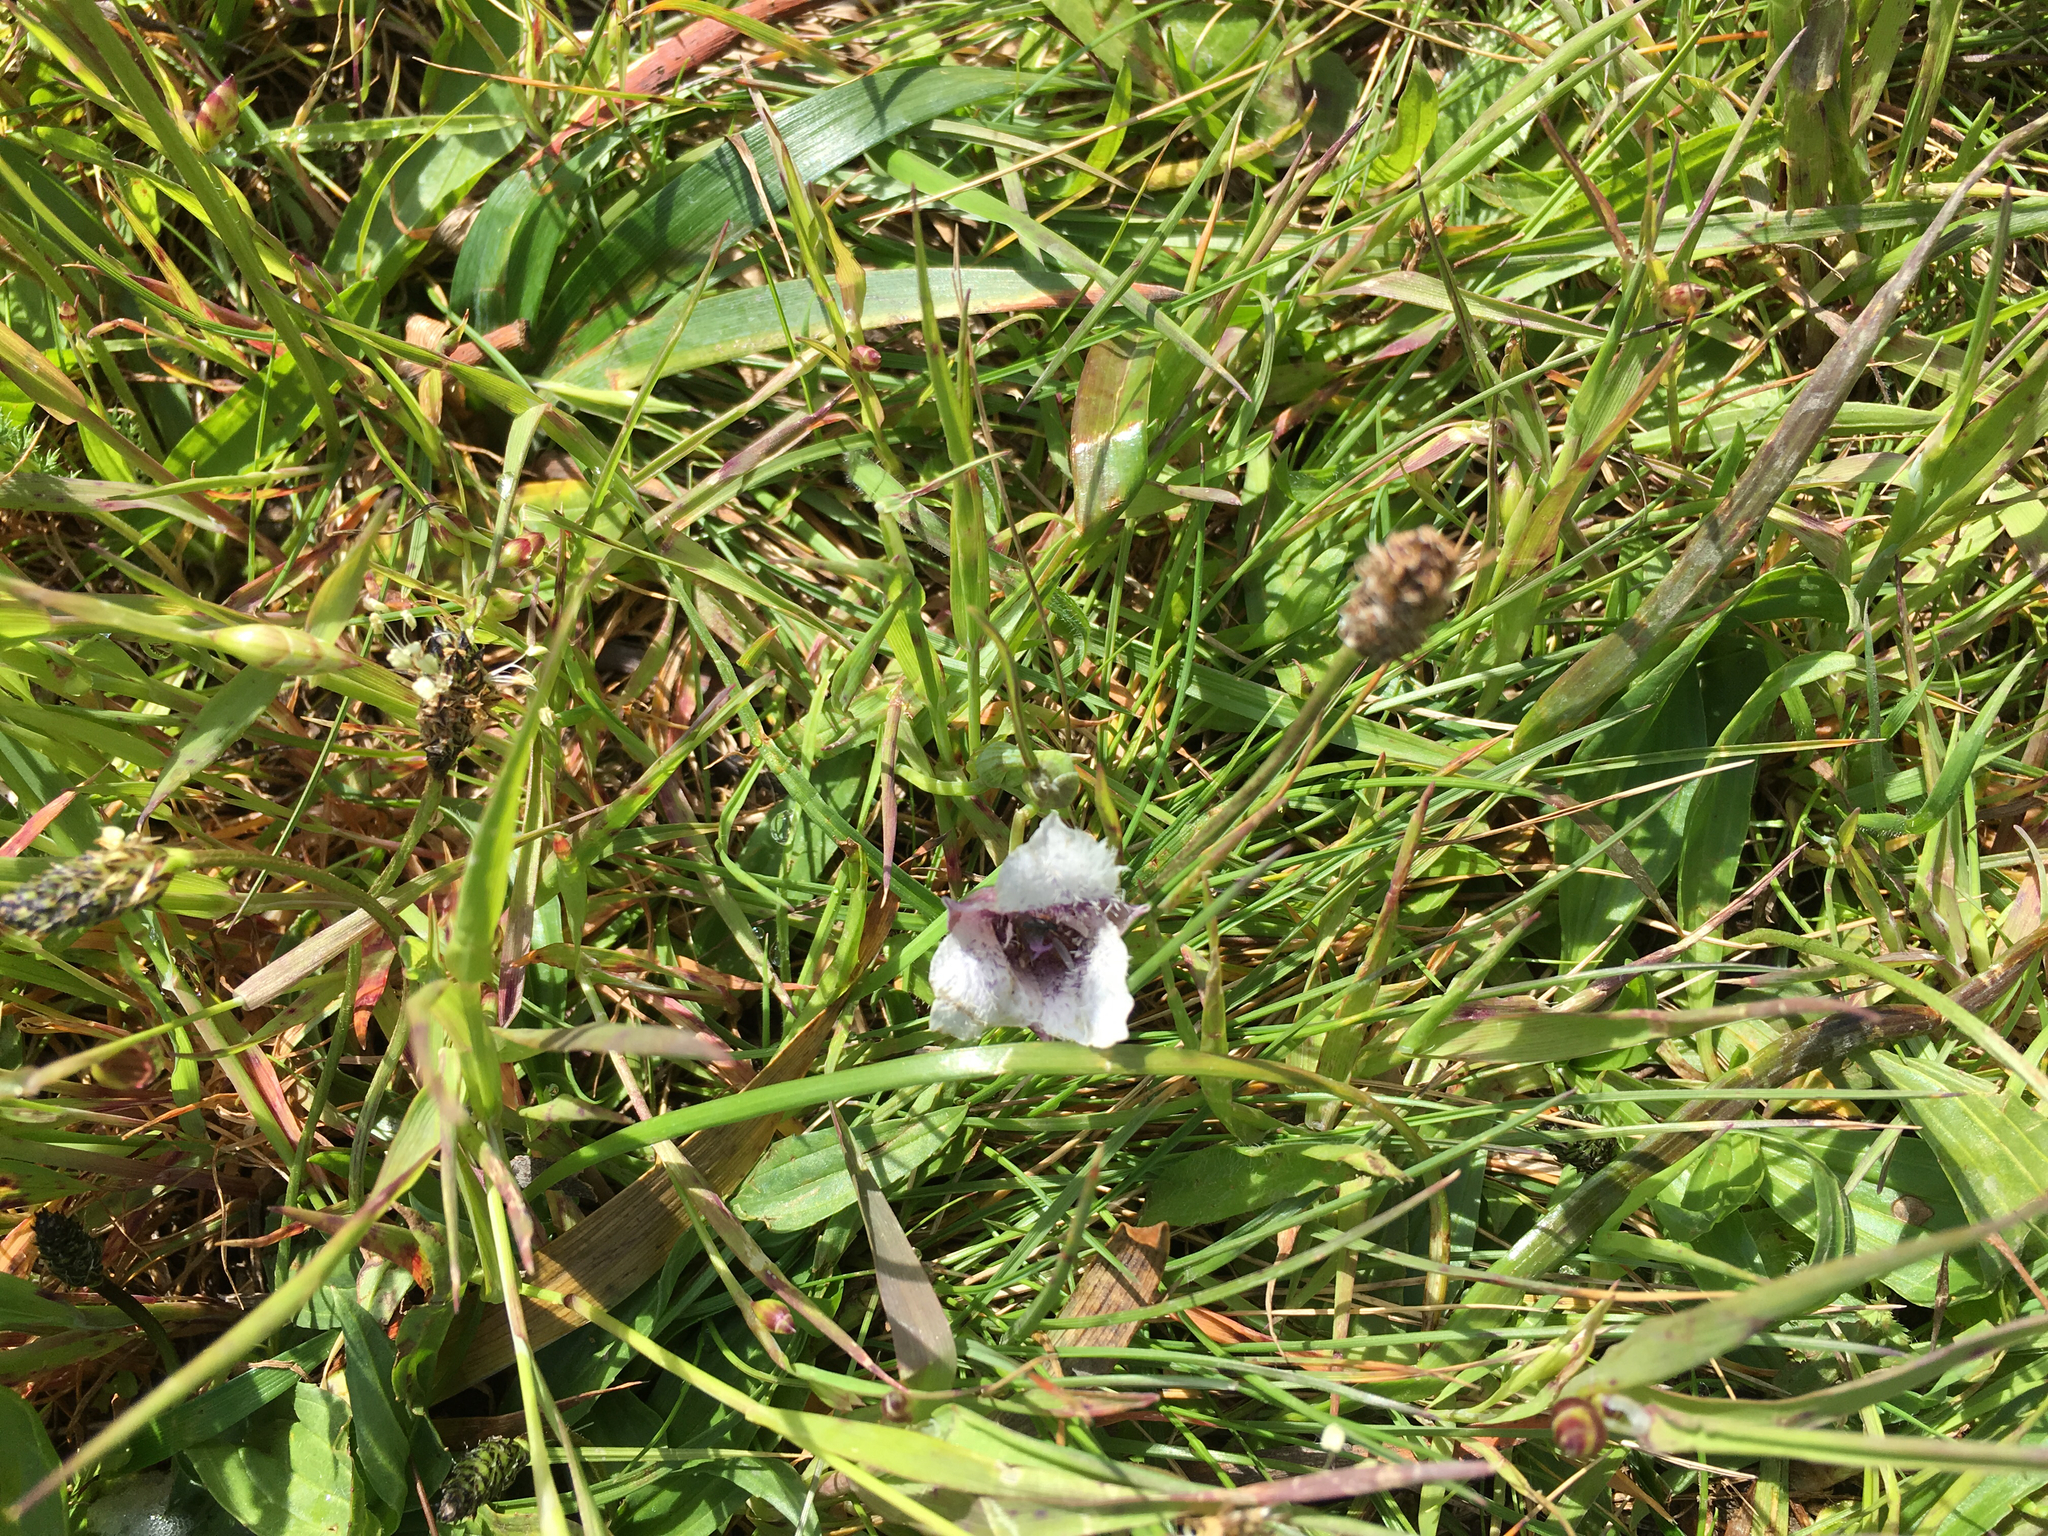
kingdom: Plantae
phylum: Tracheophyta
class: Liliopsida
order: Liliales
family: Liliaceae
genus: Calochortus
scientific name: Calochortus tolmiei
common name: Pussy-ears
